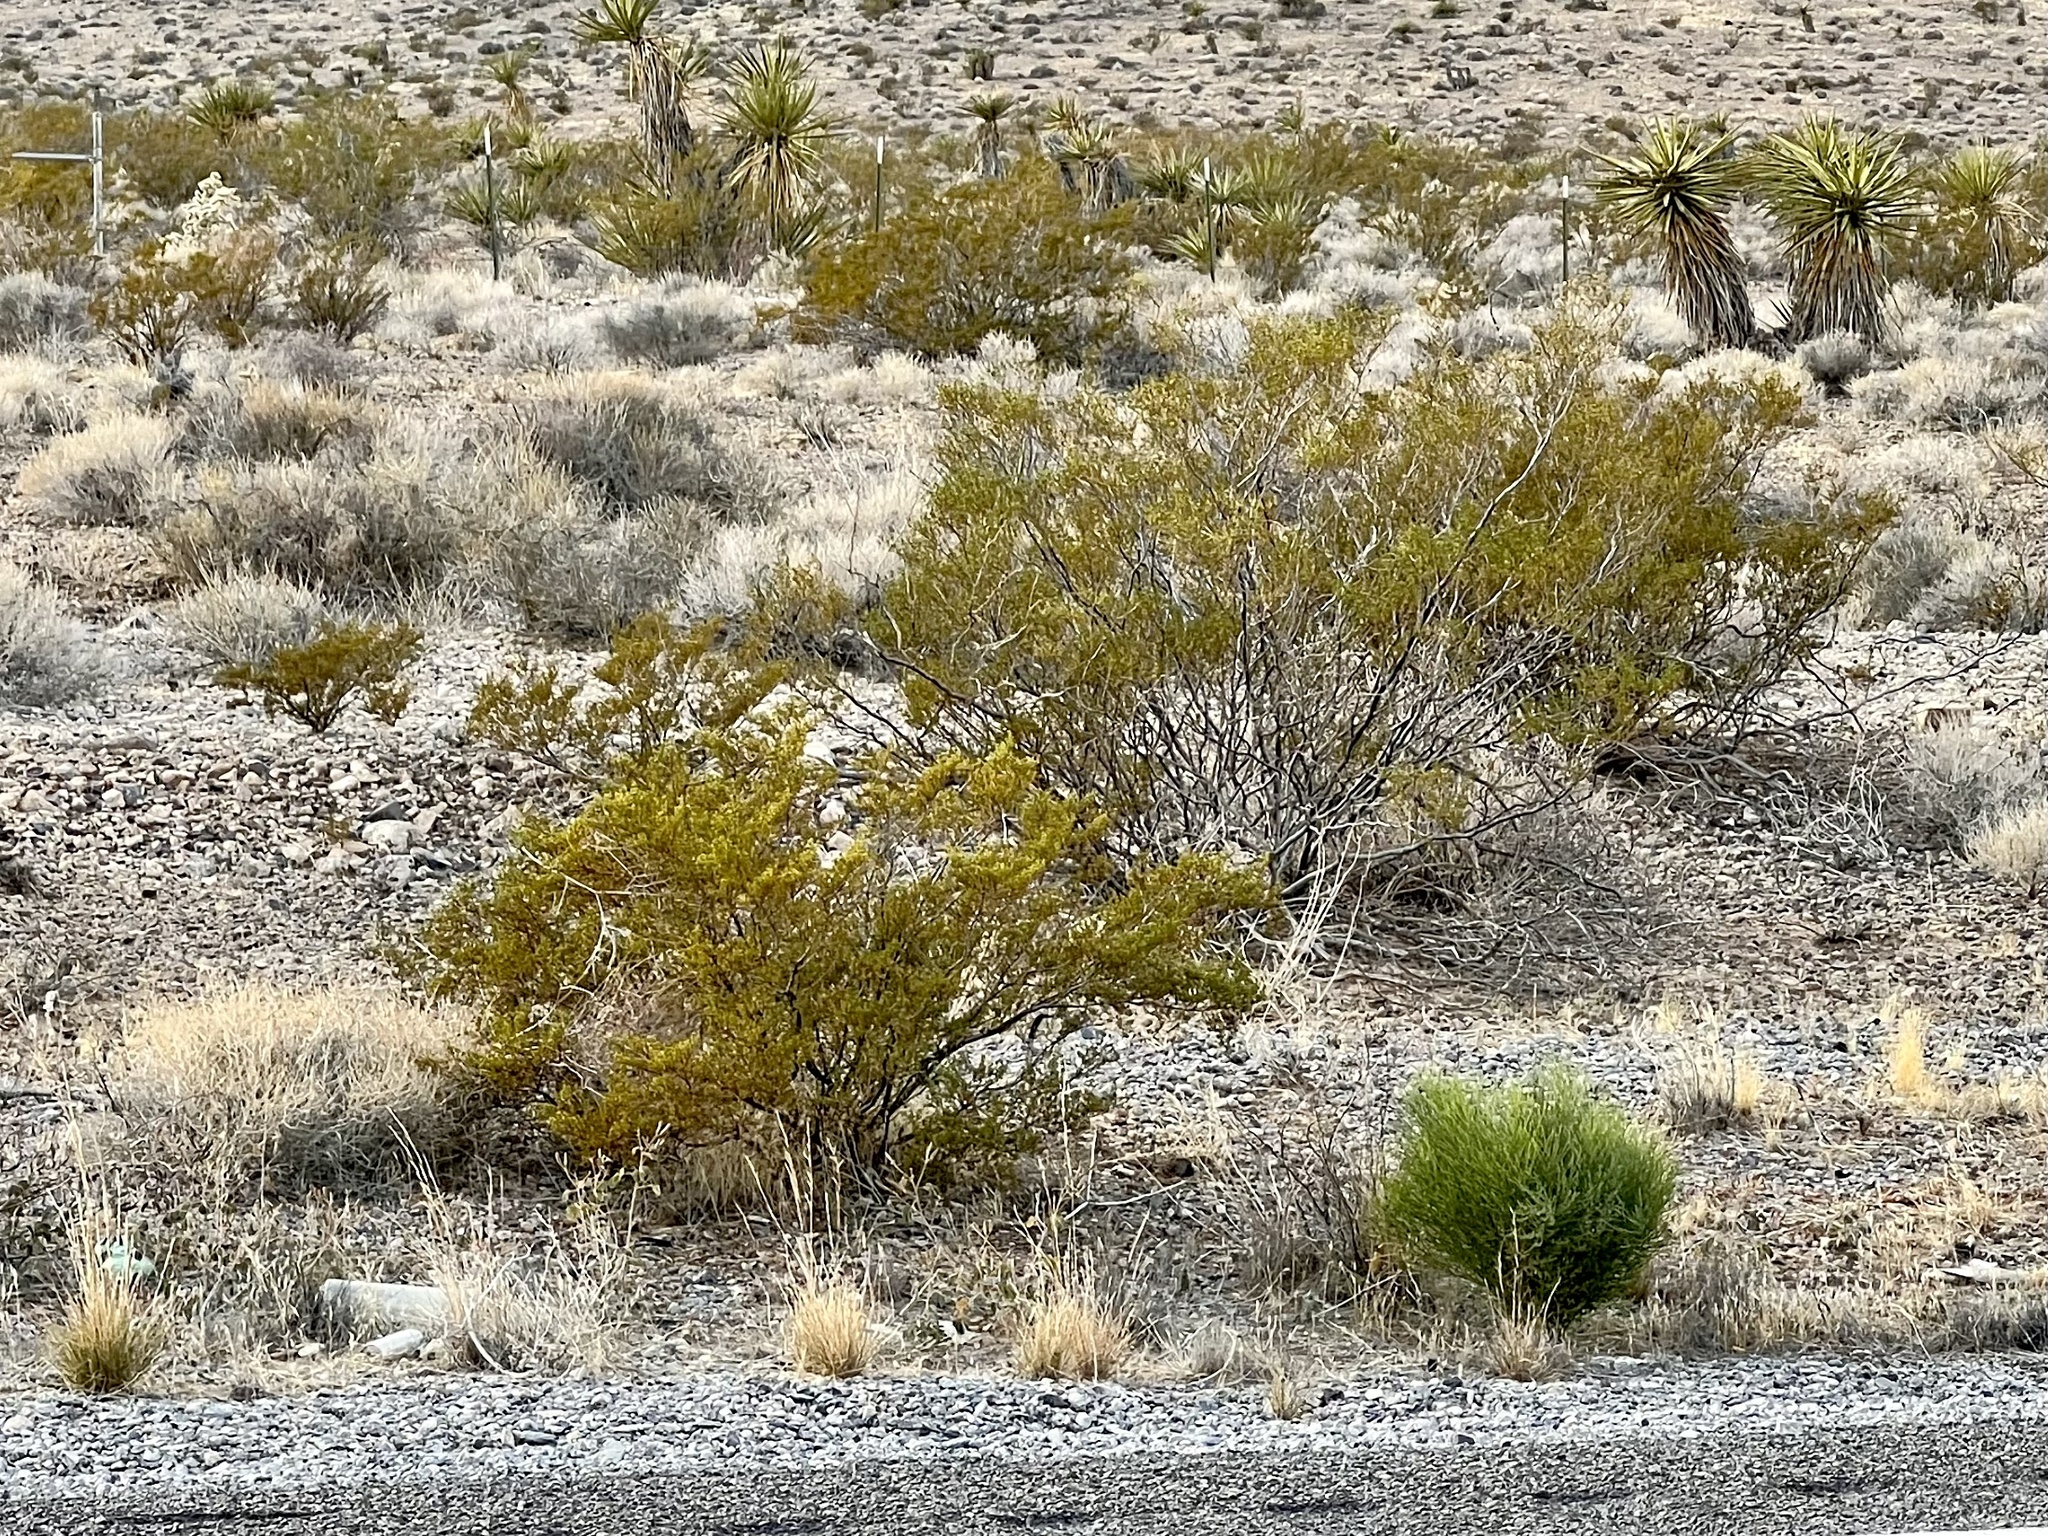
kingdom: Plantae
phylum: Tracheophyta
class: Magnoliopsida
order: Zygophyllales
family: Zygophyllaceae
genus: Larrea
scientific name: Larrea tridentata
